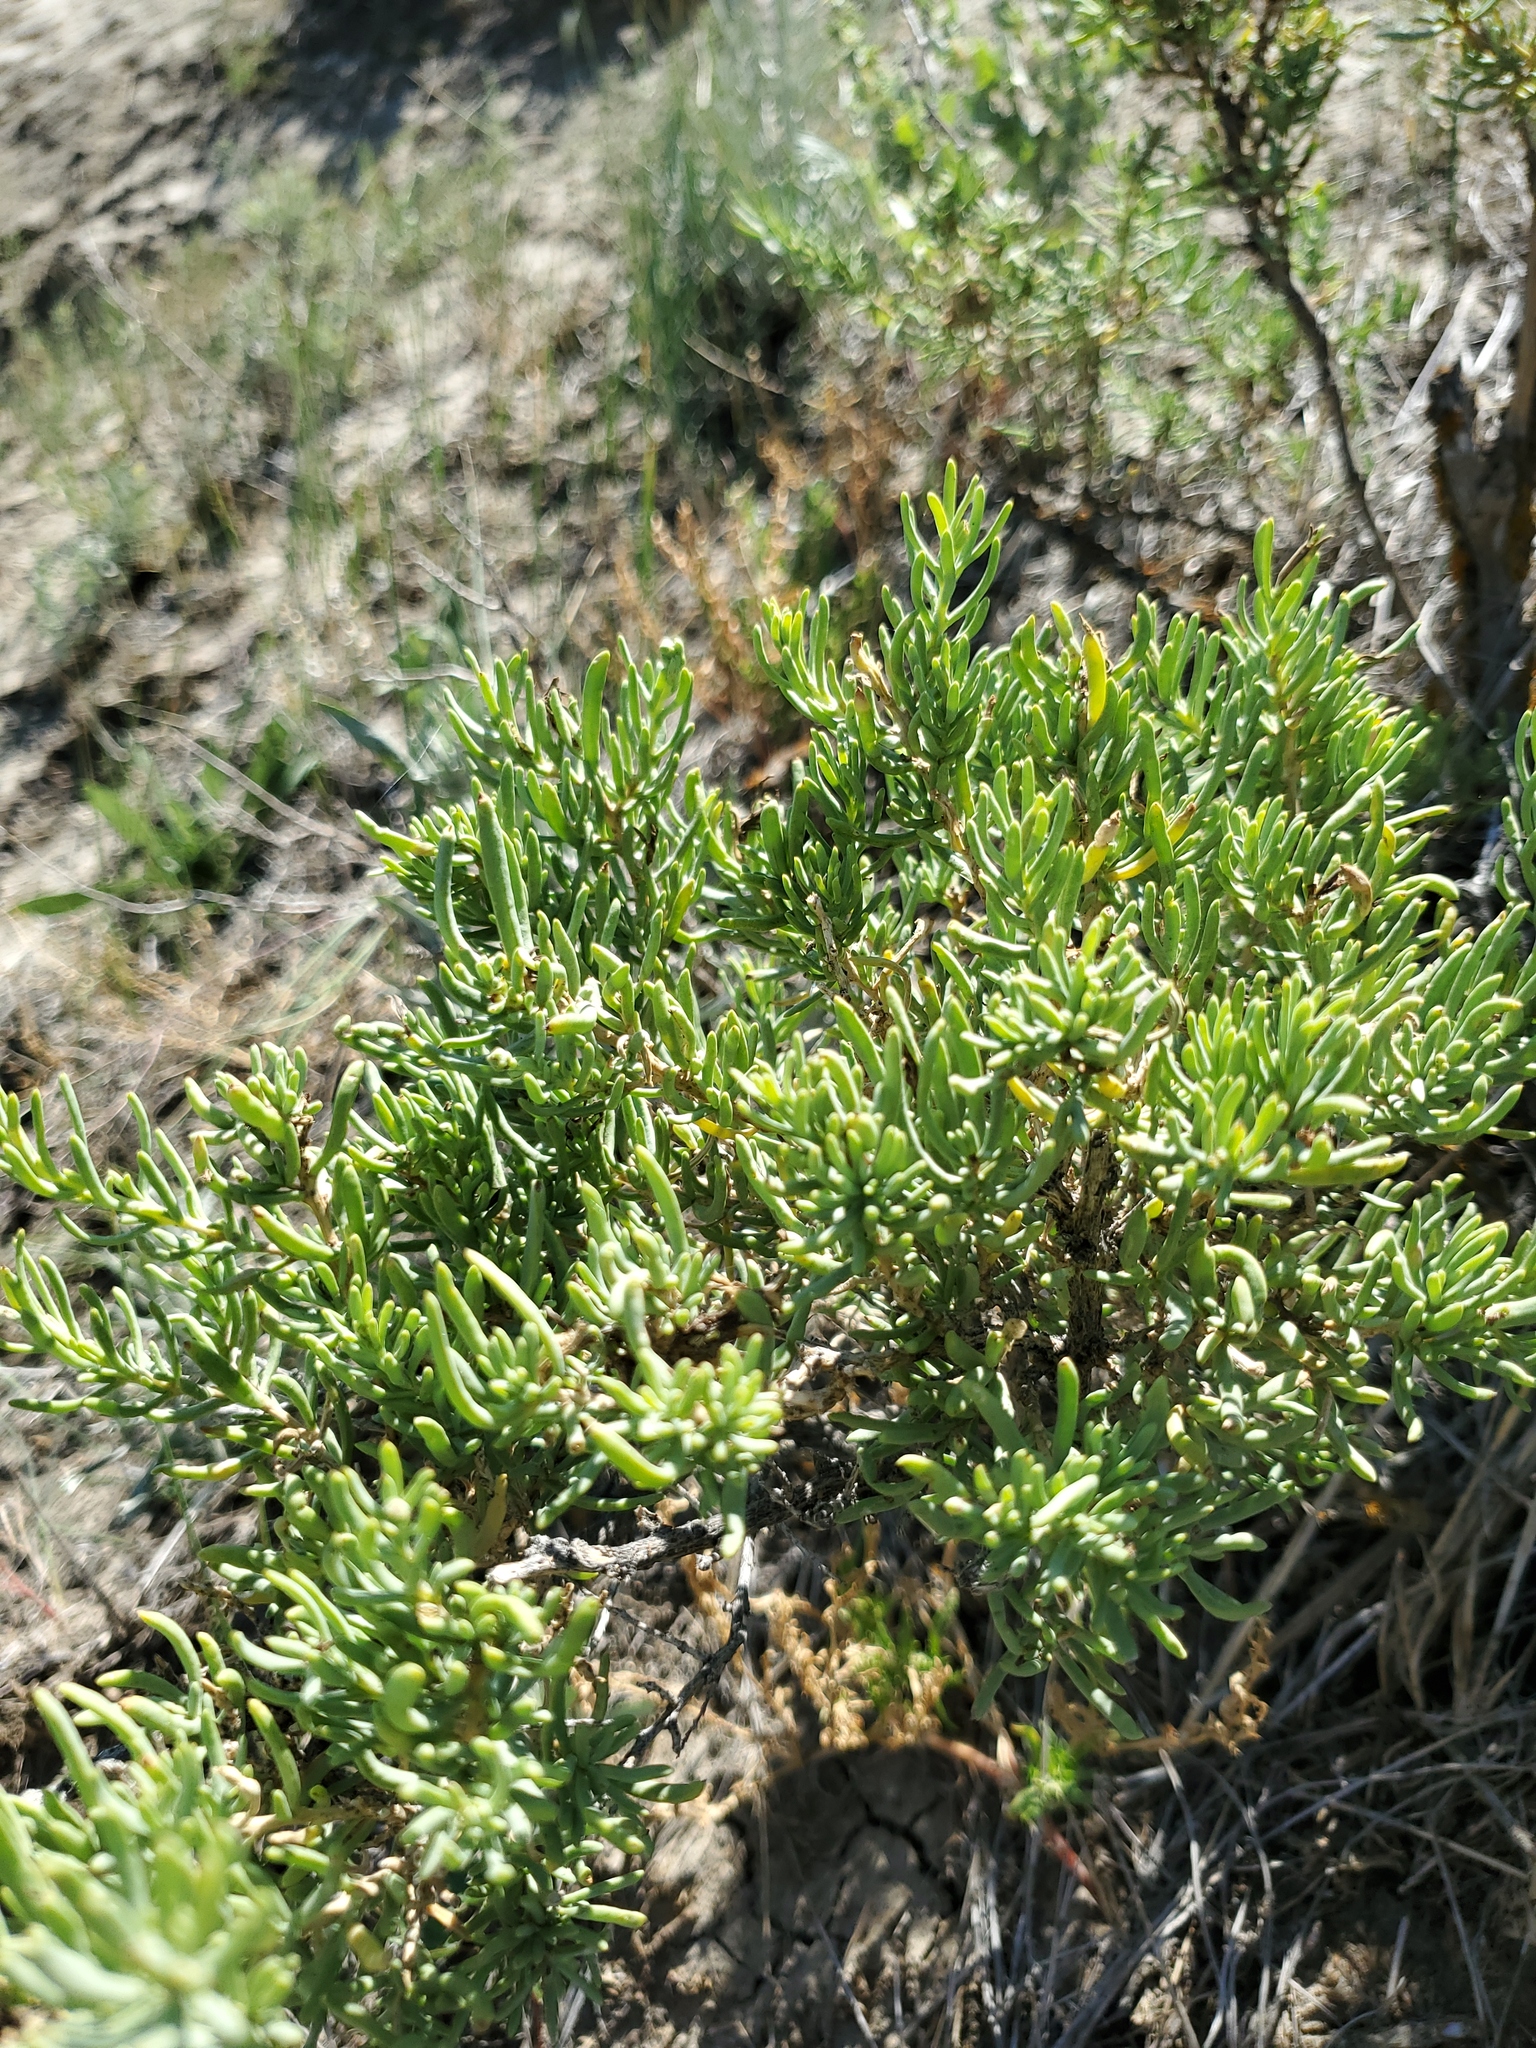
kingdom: Plantae
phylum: Tracheophyta
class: Magnoliopsida
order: Caryophyllales
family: Sarcobataceae
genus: Sarcobatus
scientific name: Sarcobatus vermiculatus
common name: Greasewood
